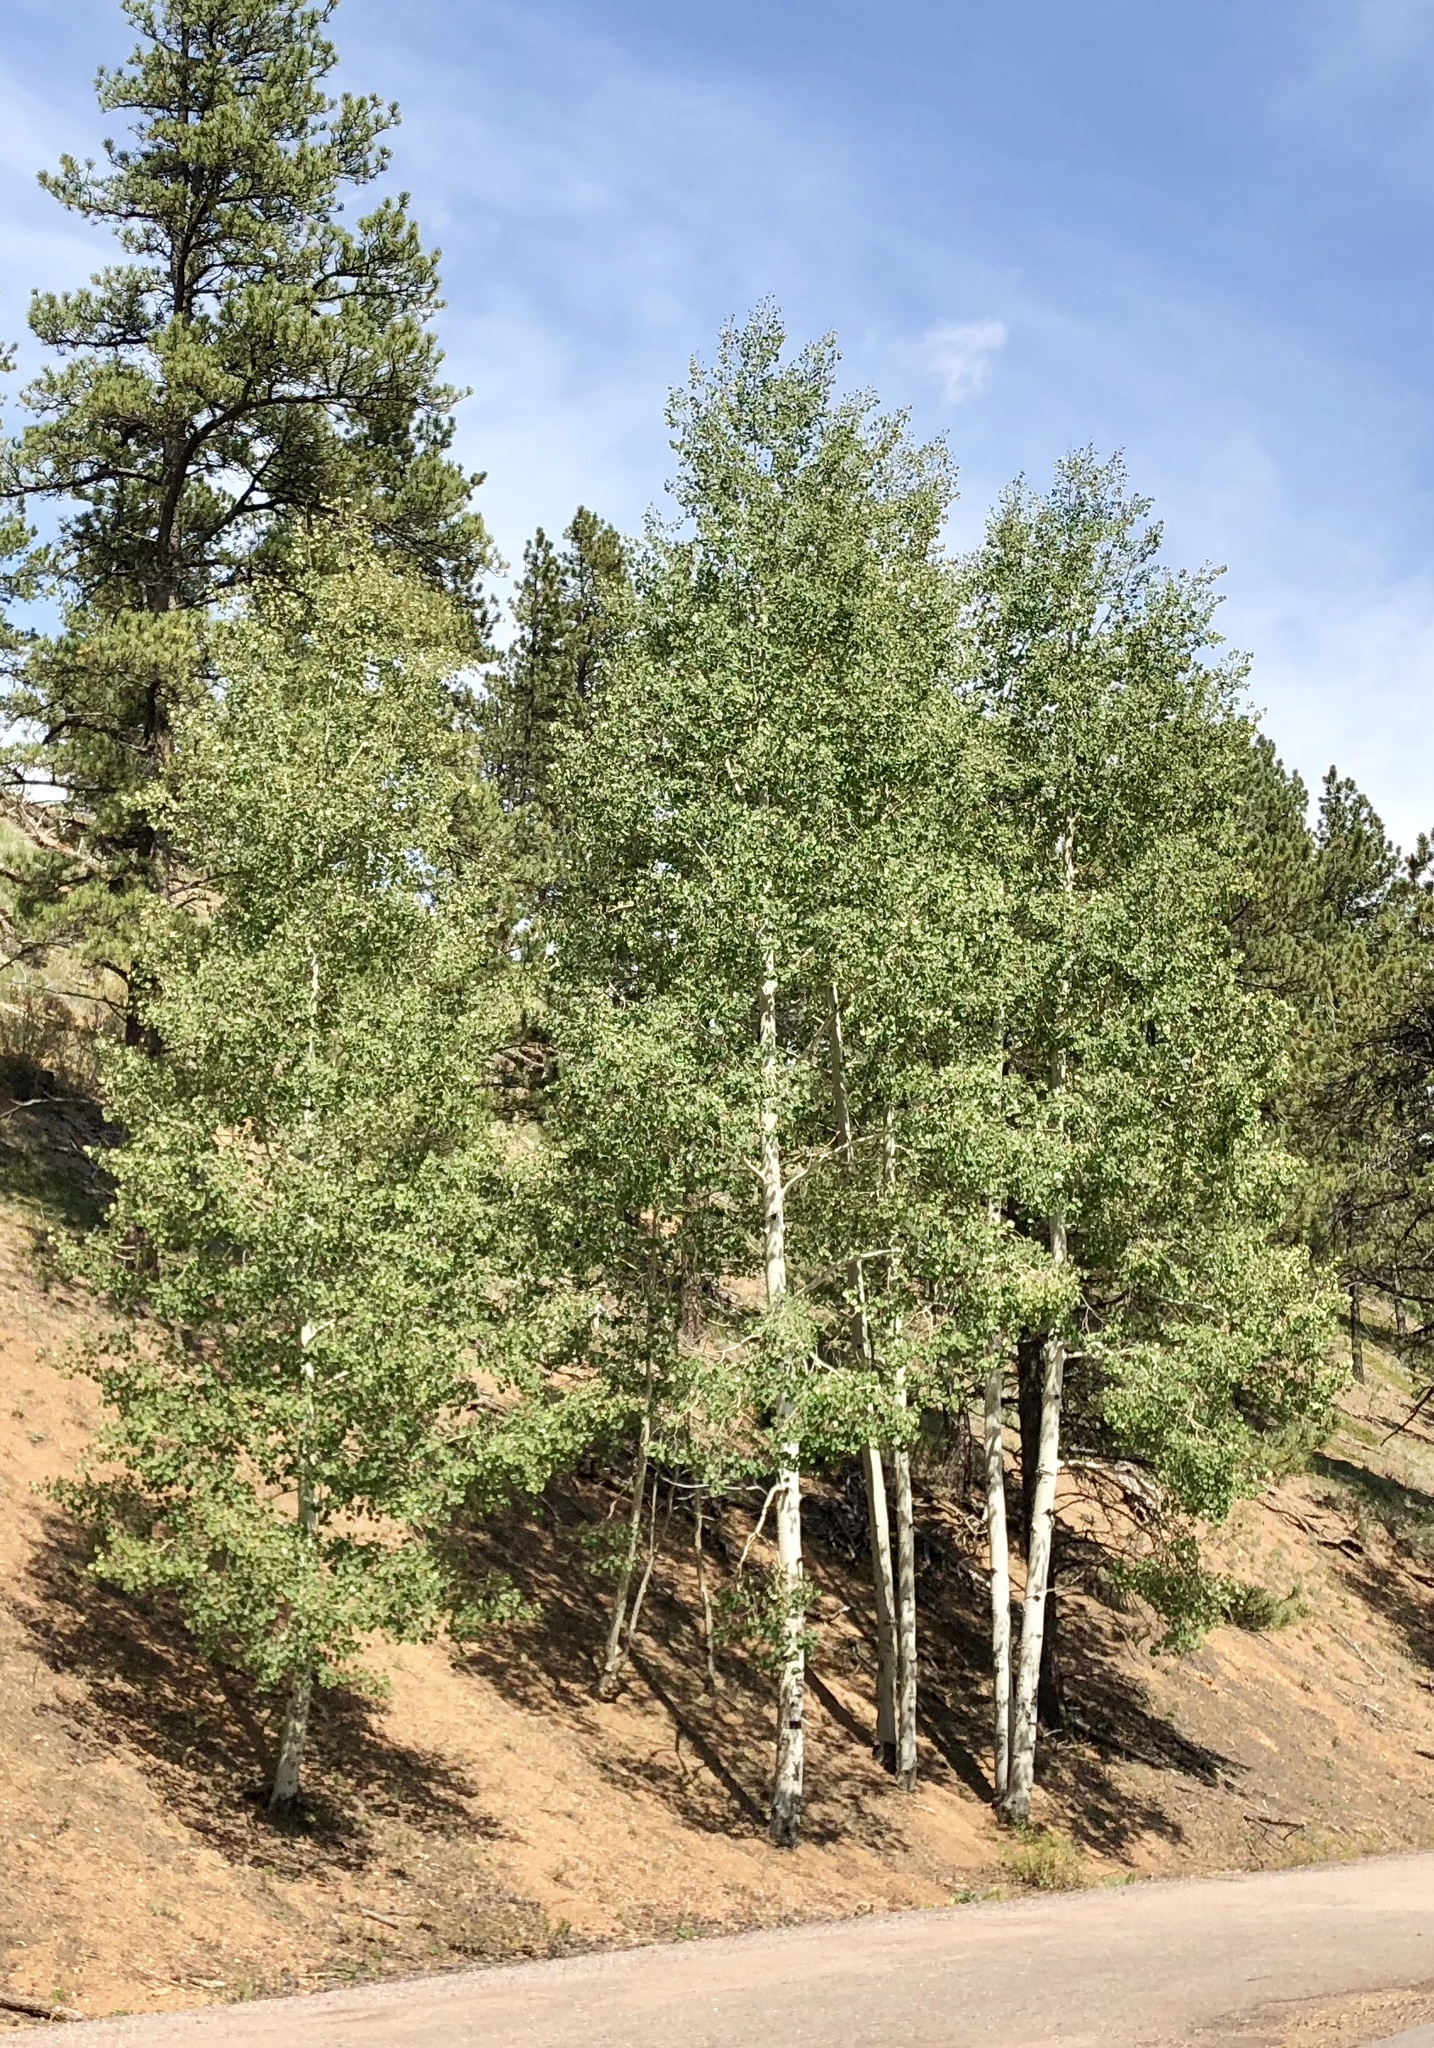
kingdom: Plantae
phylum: Tracheophyta
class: Magnoliopsida
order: Malpighiales
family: Salicaceae
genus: Populus
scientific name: Populus tremuloides
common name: Quaking aspen
